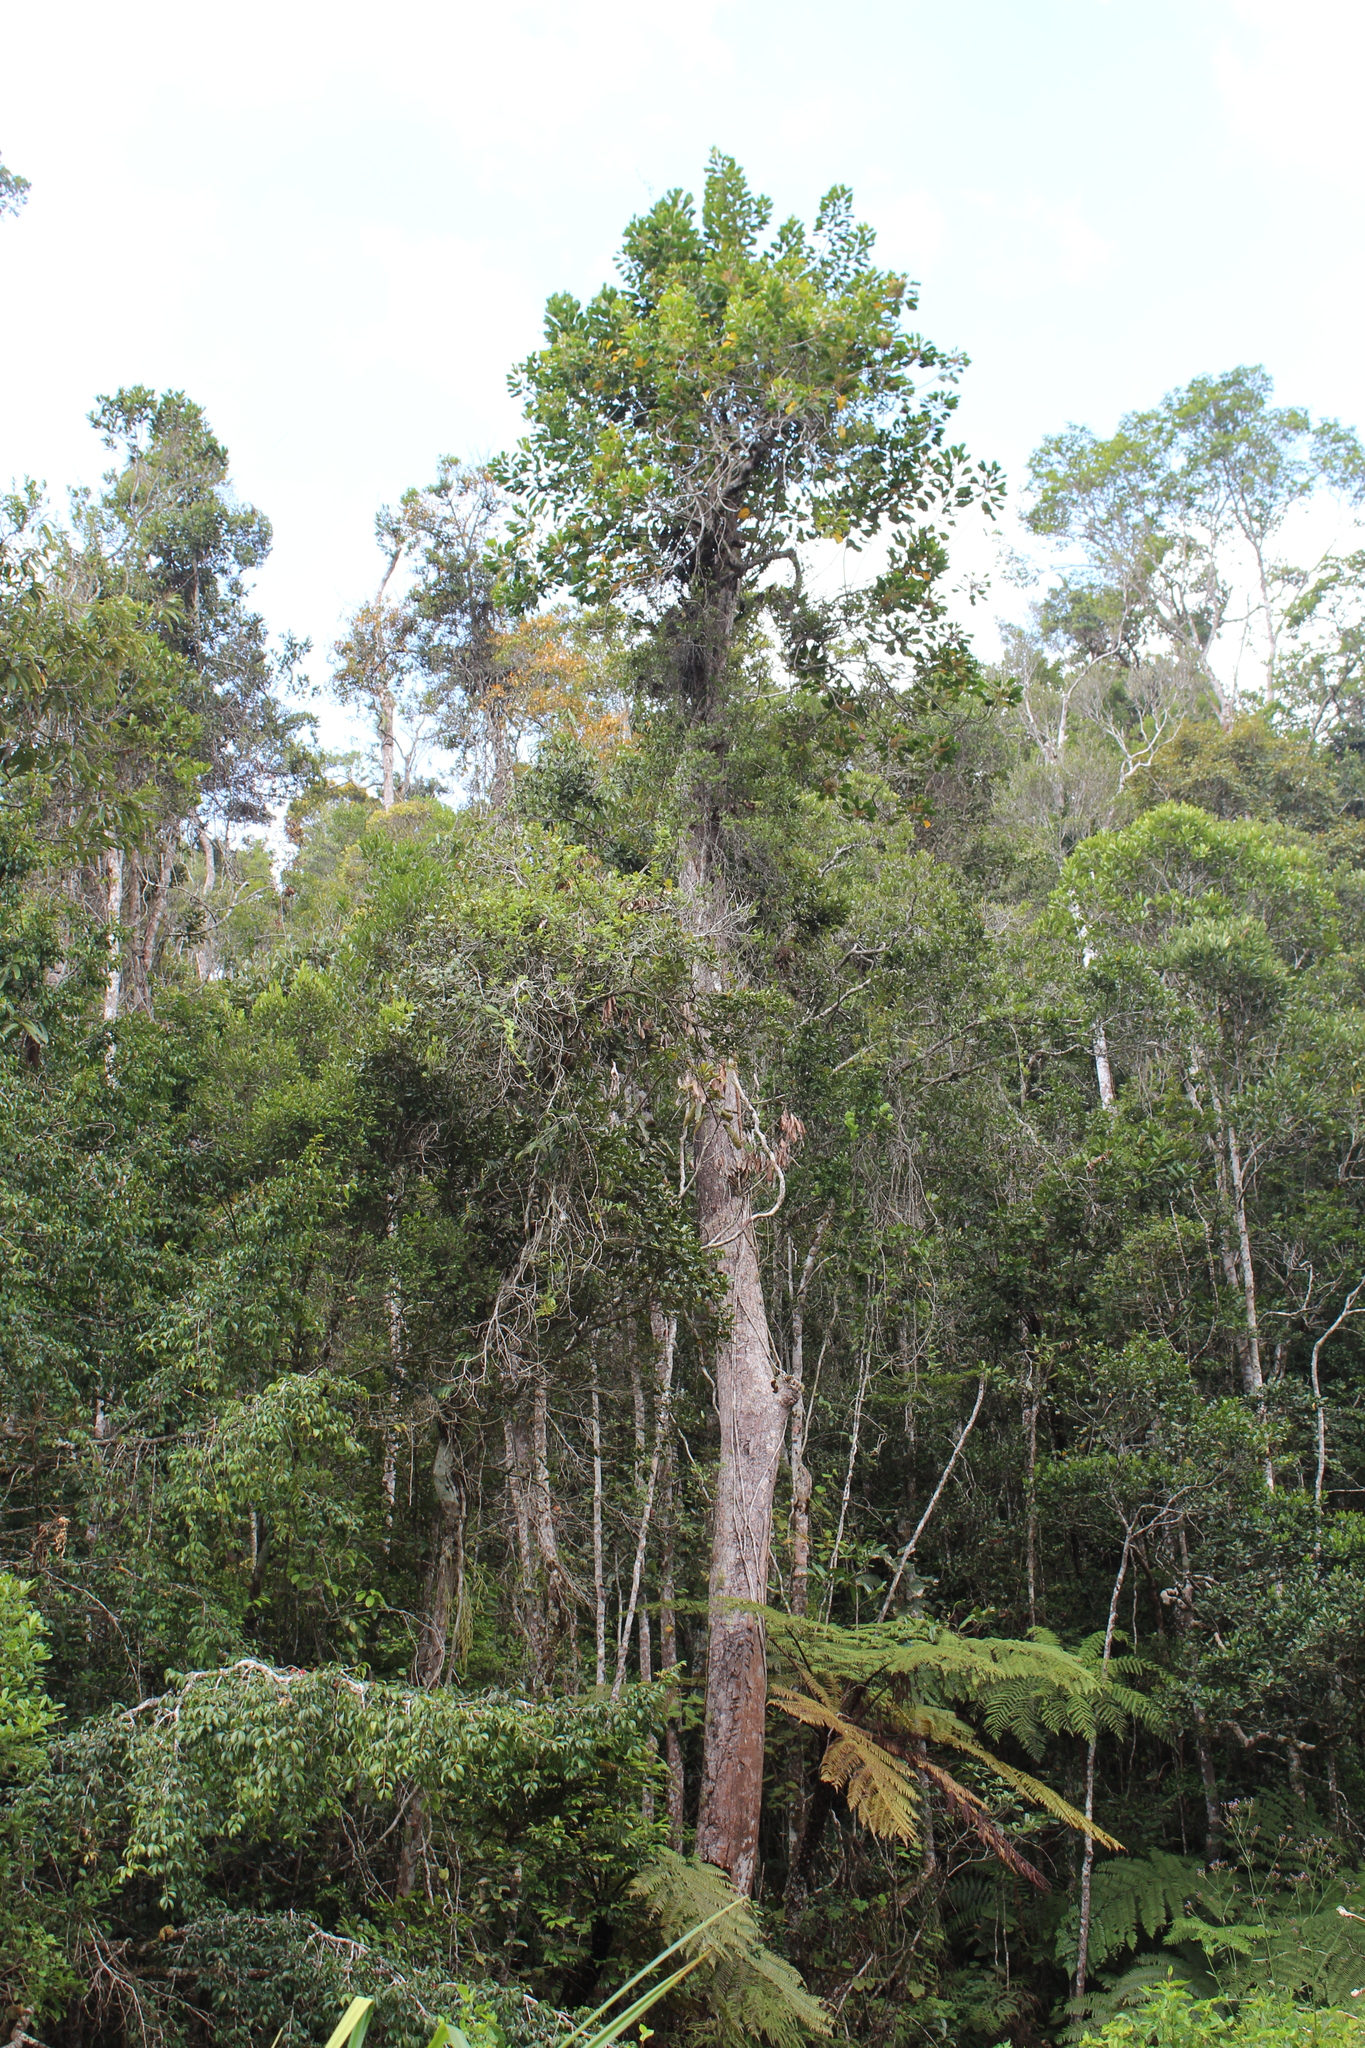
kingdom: Plantae
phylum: Tracheophyta
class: Magnoliopsida
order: Proteales
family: Proteaceae
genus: Dilobeia
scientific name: Dilobeia thouarsii
